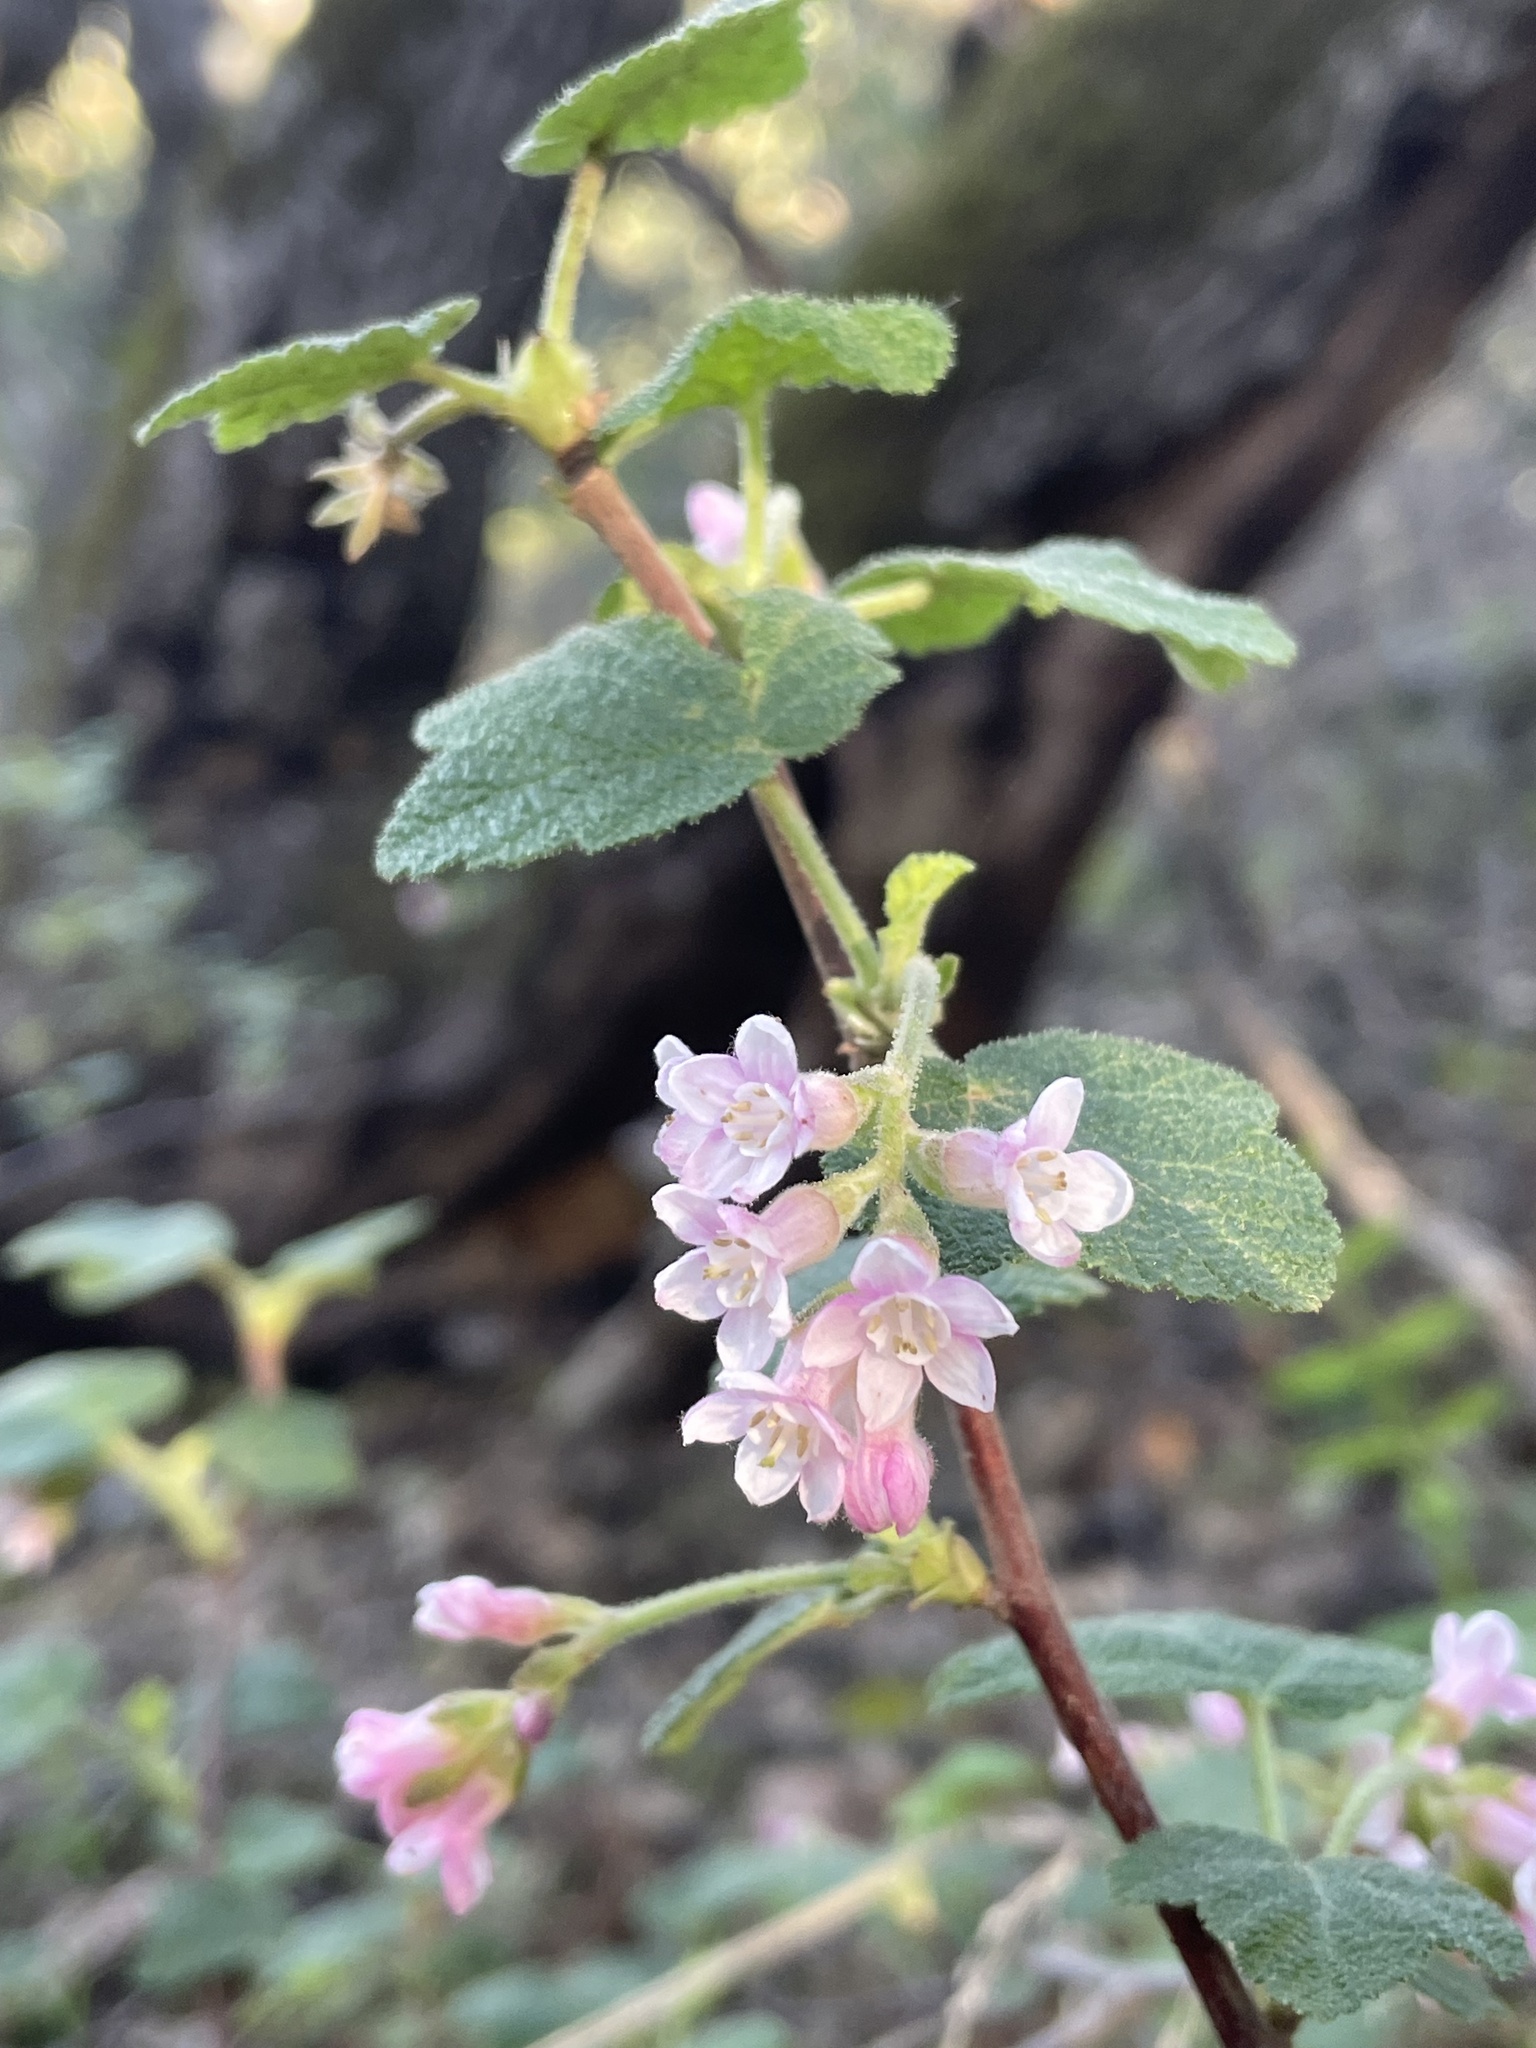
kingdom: Plantae
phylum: Tracheophyta
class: Magnoliopsida
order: Saxifragales
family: Grossulariaceae
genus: Ribes
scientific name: Ribes malvaceum
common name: Chaparral currant
